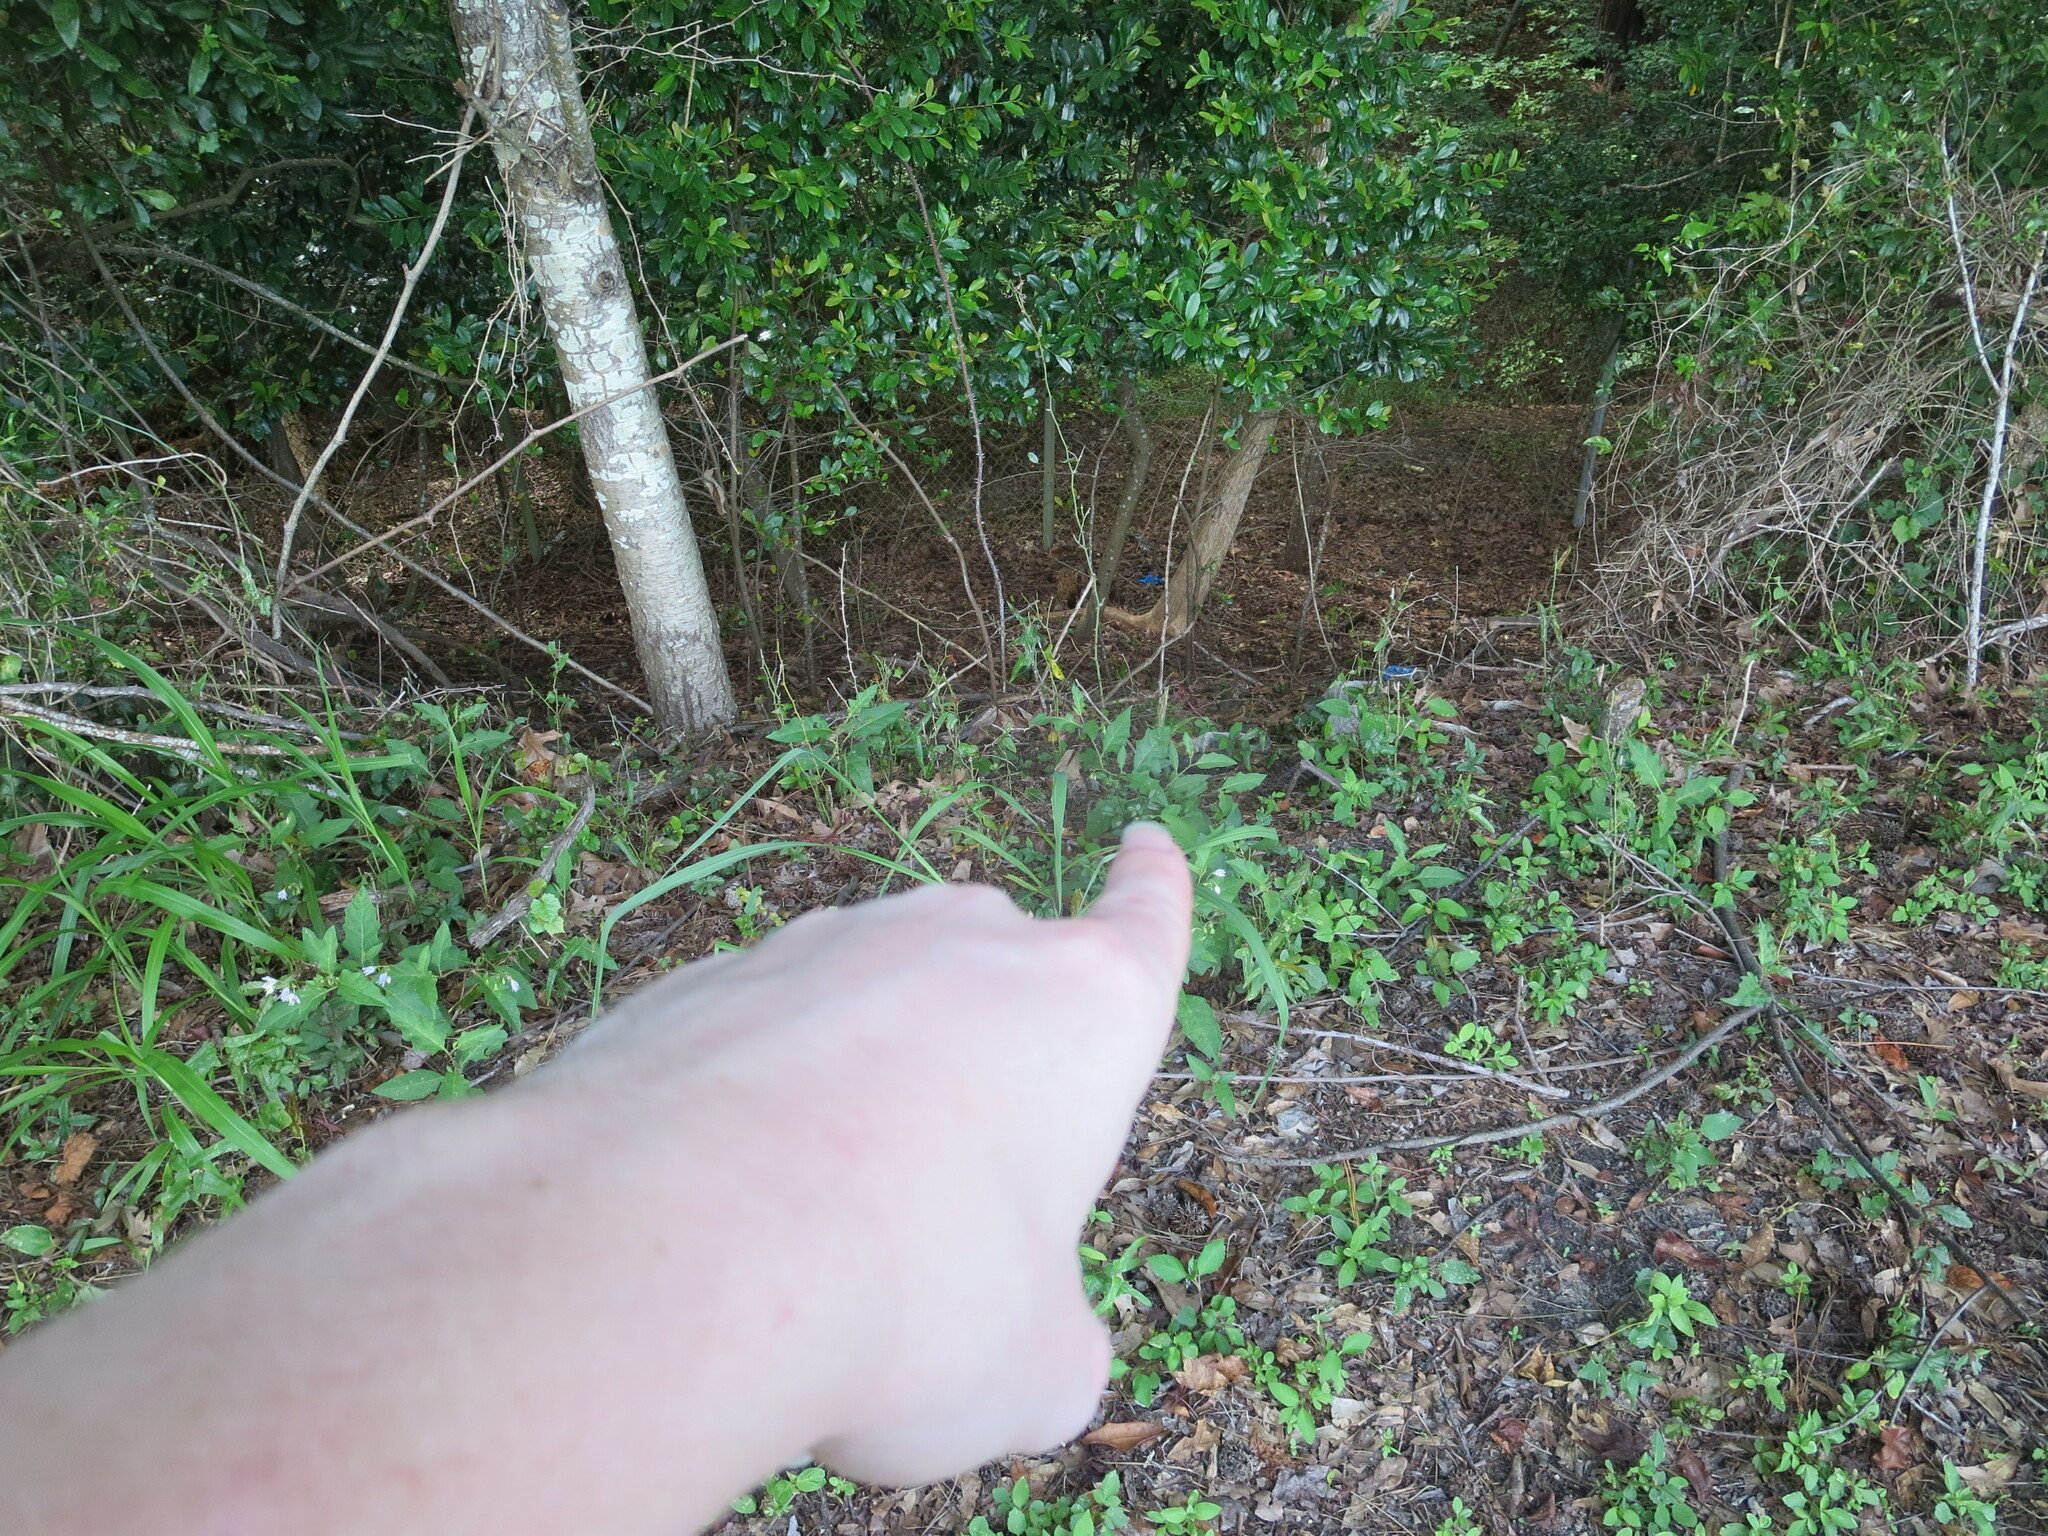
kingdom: Plantae
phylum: Tracheophyta
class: Magnoliopsida
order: Solanales
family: Solanaceae
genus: Solanum
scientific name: Solanum carolinense
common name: Horse-nettle
